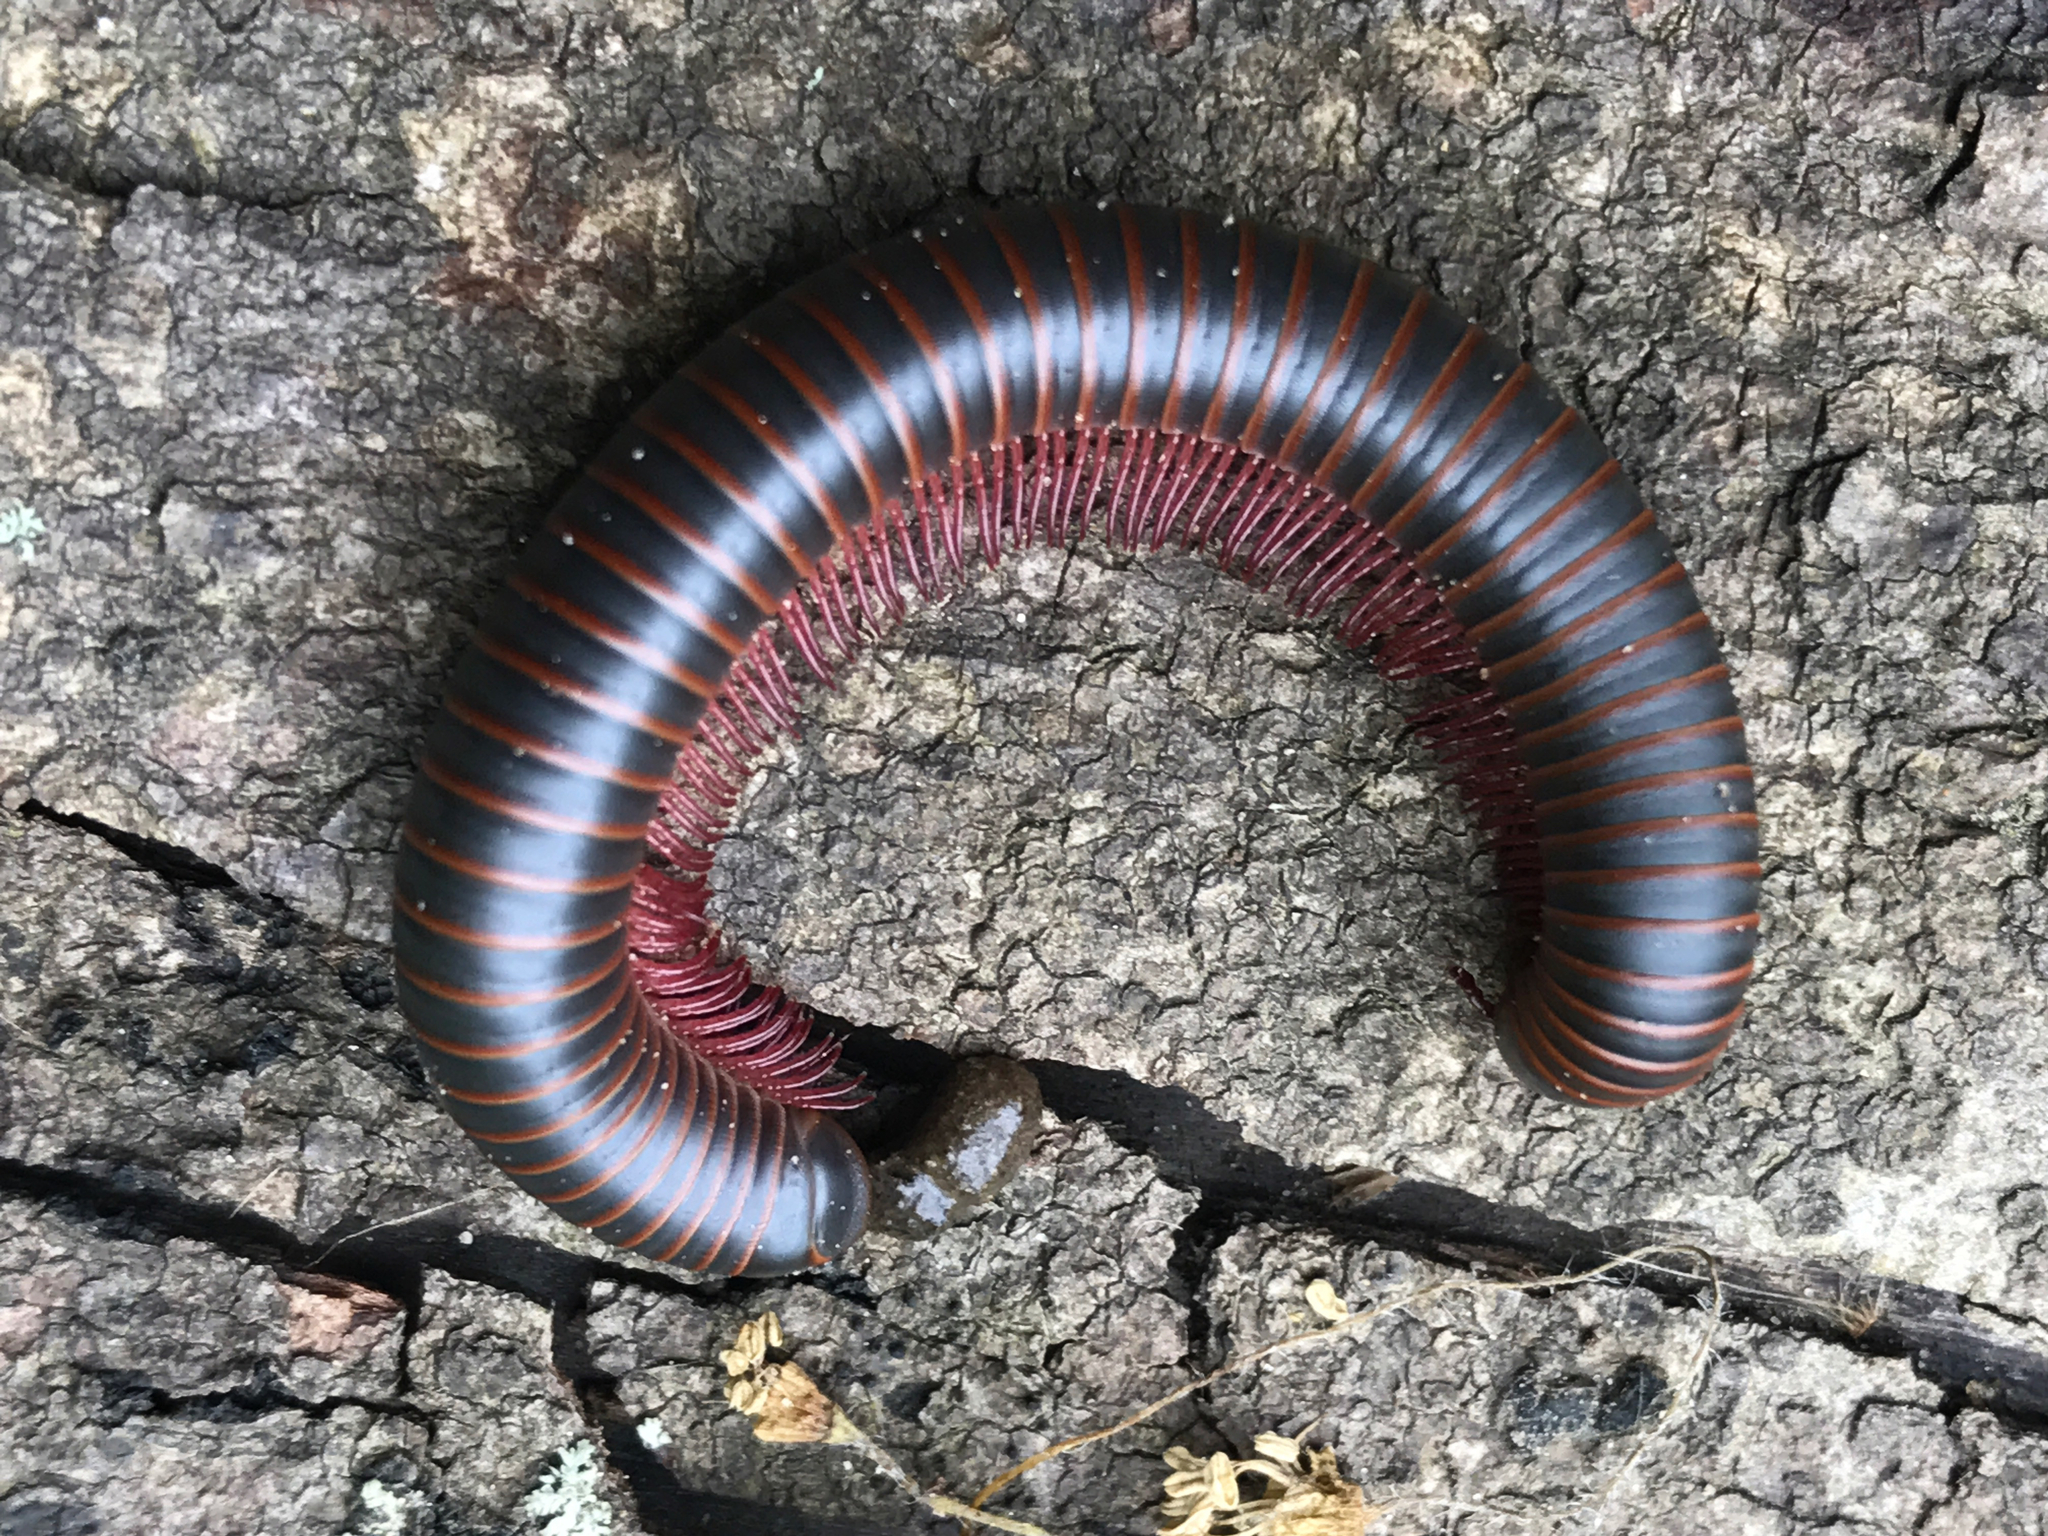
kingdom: Animalia
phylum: Arthropoda
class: Diplopoda
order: Spirobolida
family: Spirobolidae
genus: Narceus
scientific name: Narceus
